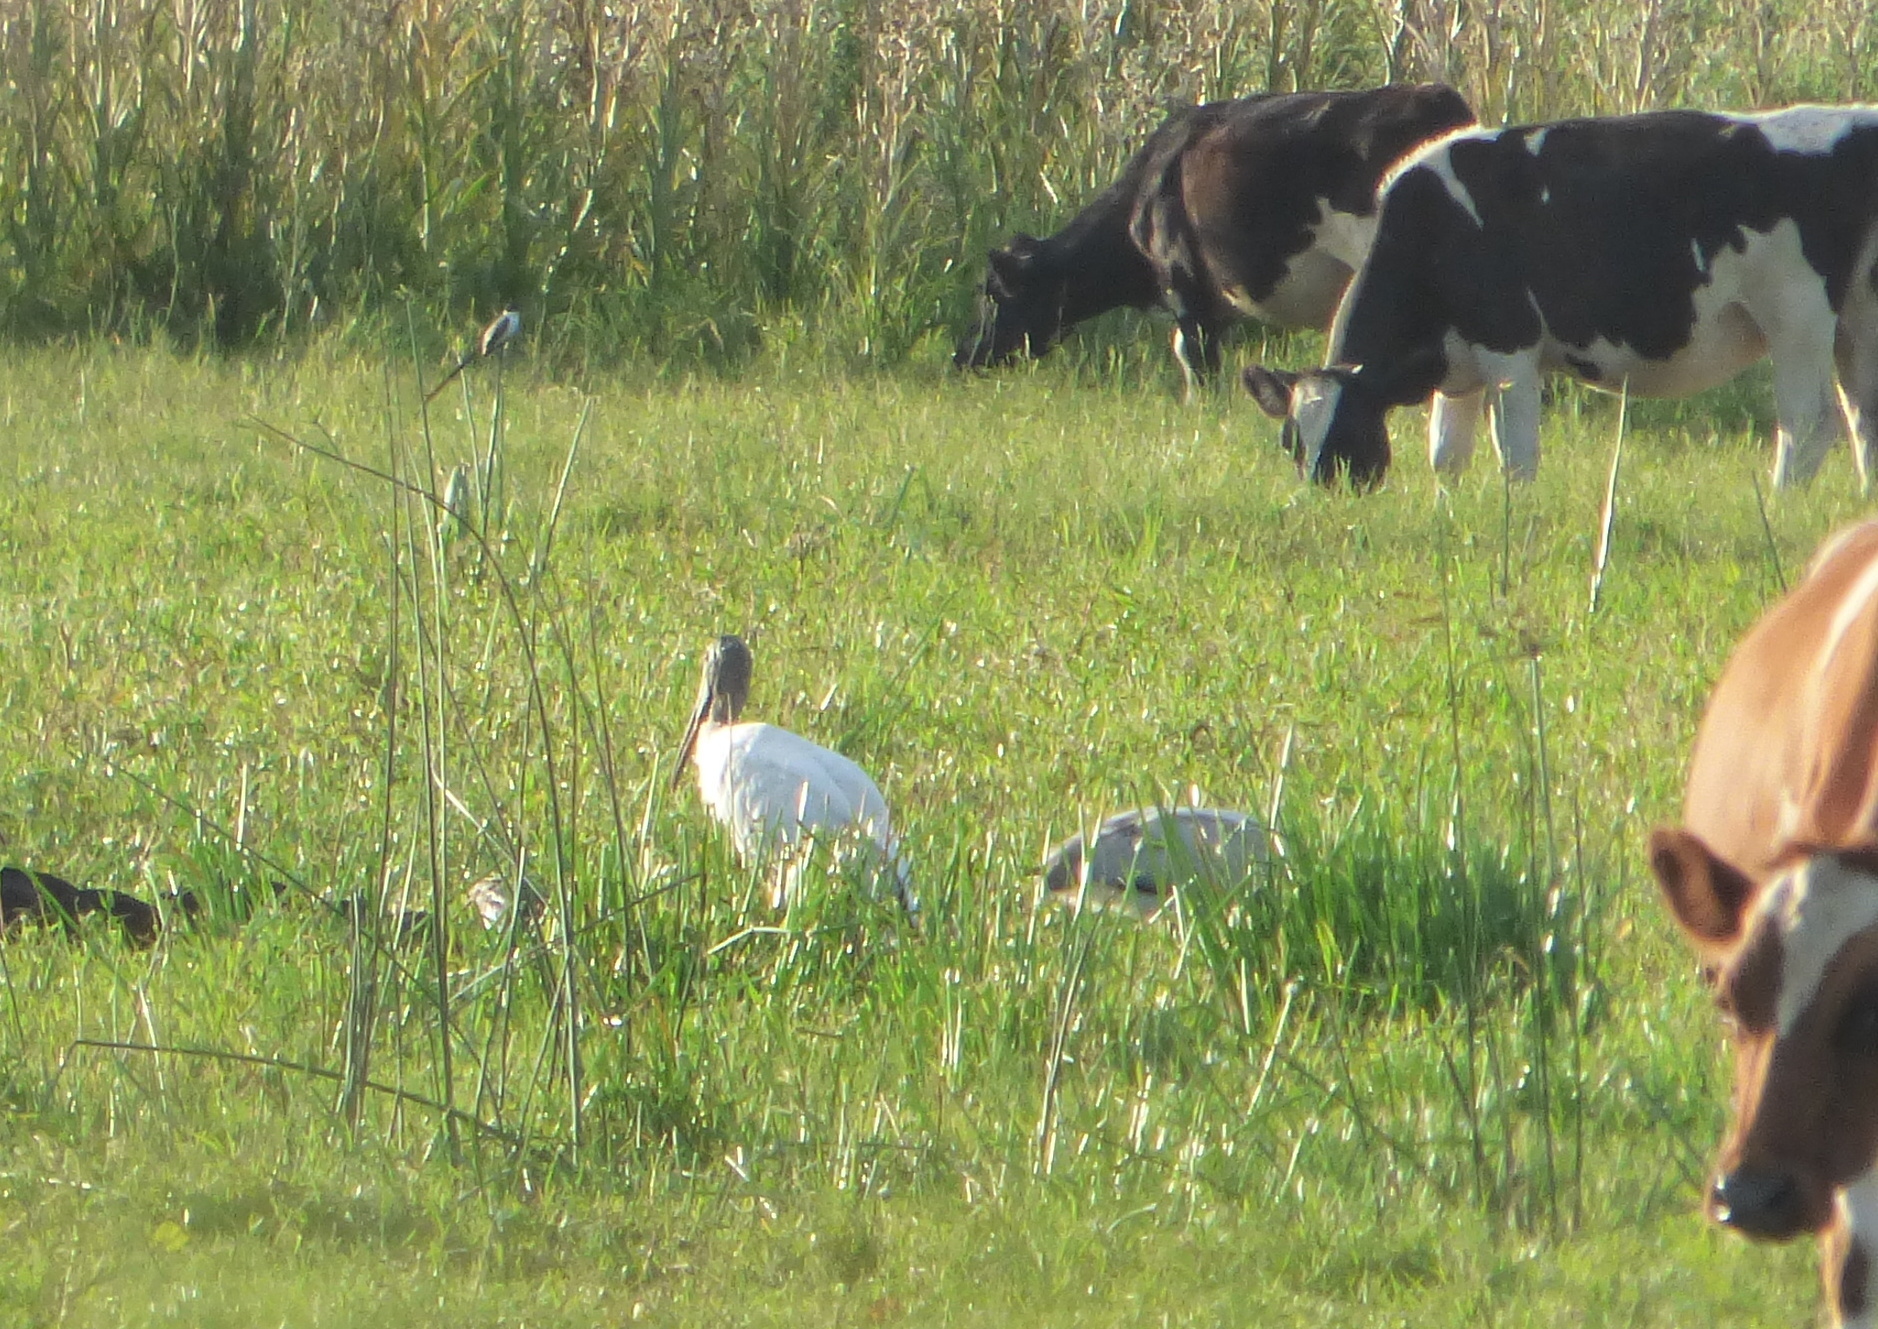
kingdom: Animalia
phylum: Chordata
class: Aves
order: Ciconiiformes
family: Ciconiidae
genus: Mycteria
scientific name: Mycteria americana
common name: Wood stork
